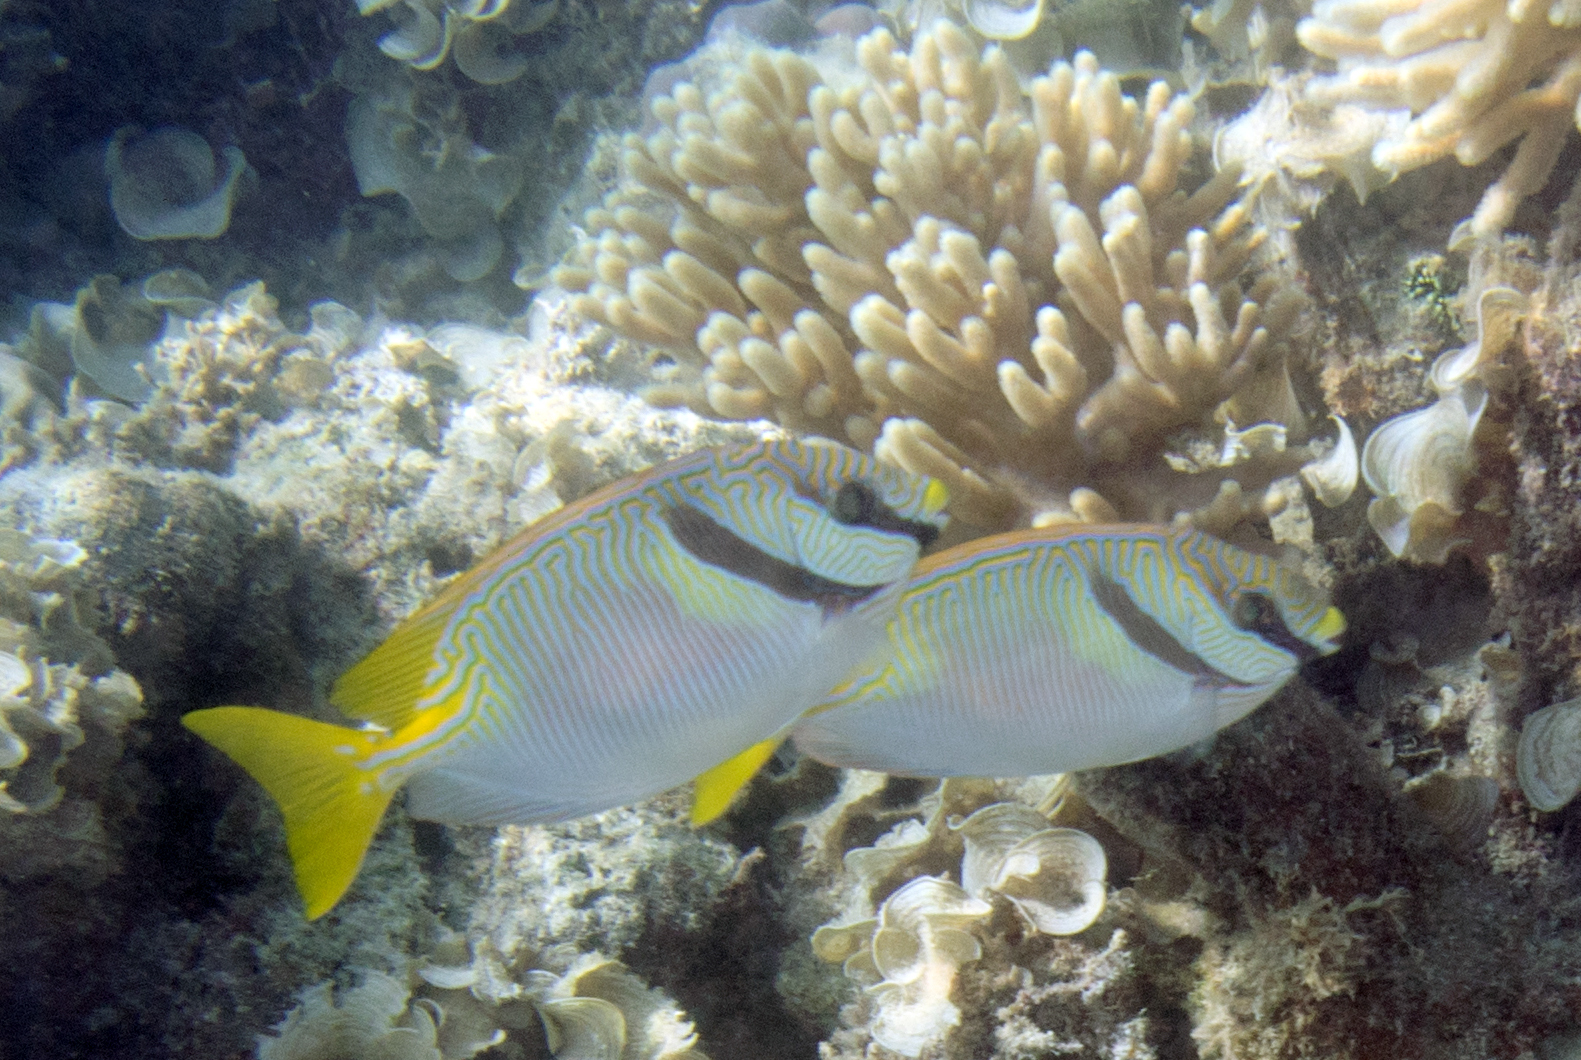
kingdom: Animalia
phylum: Chordata
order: Perciformes
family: Siganidae
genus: Siganus
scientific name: Siganus doliatus
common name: Barred spinefoot
